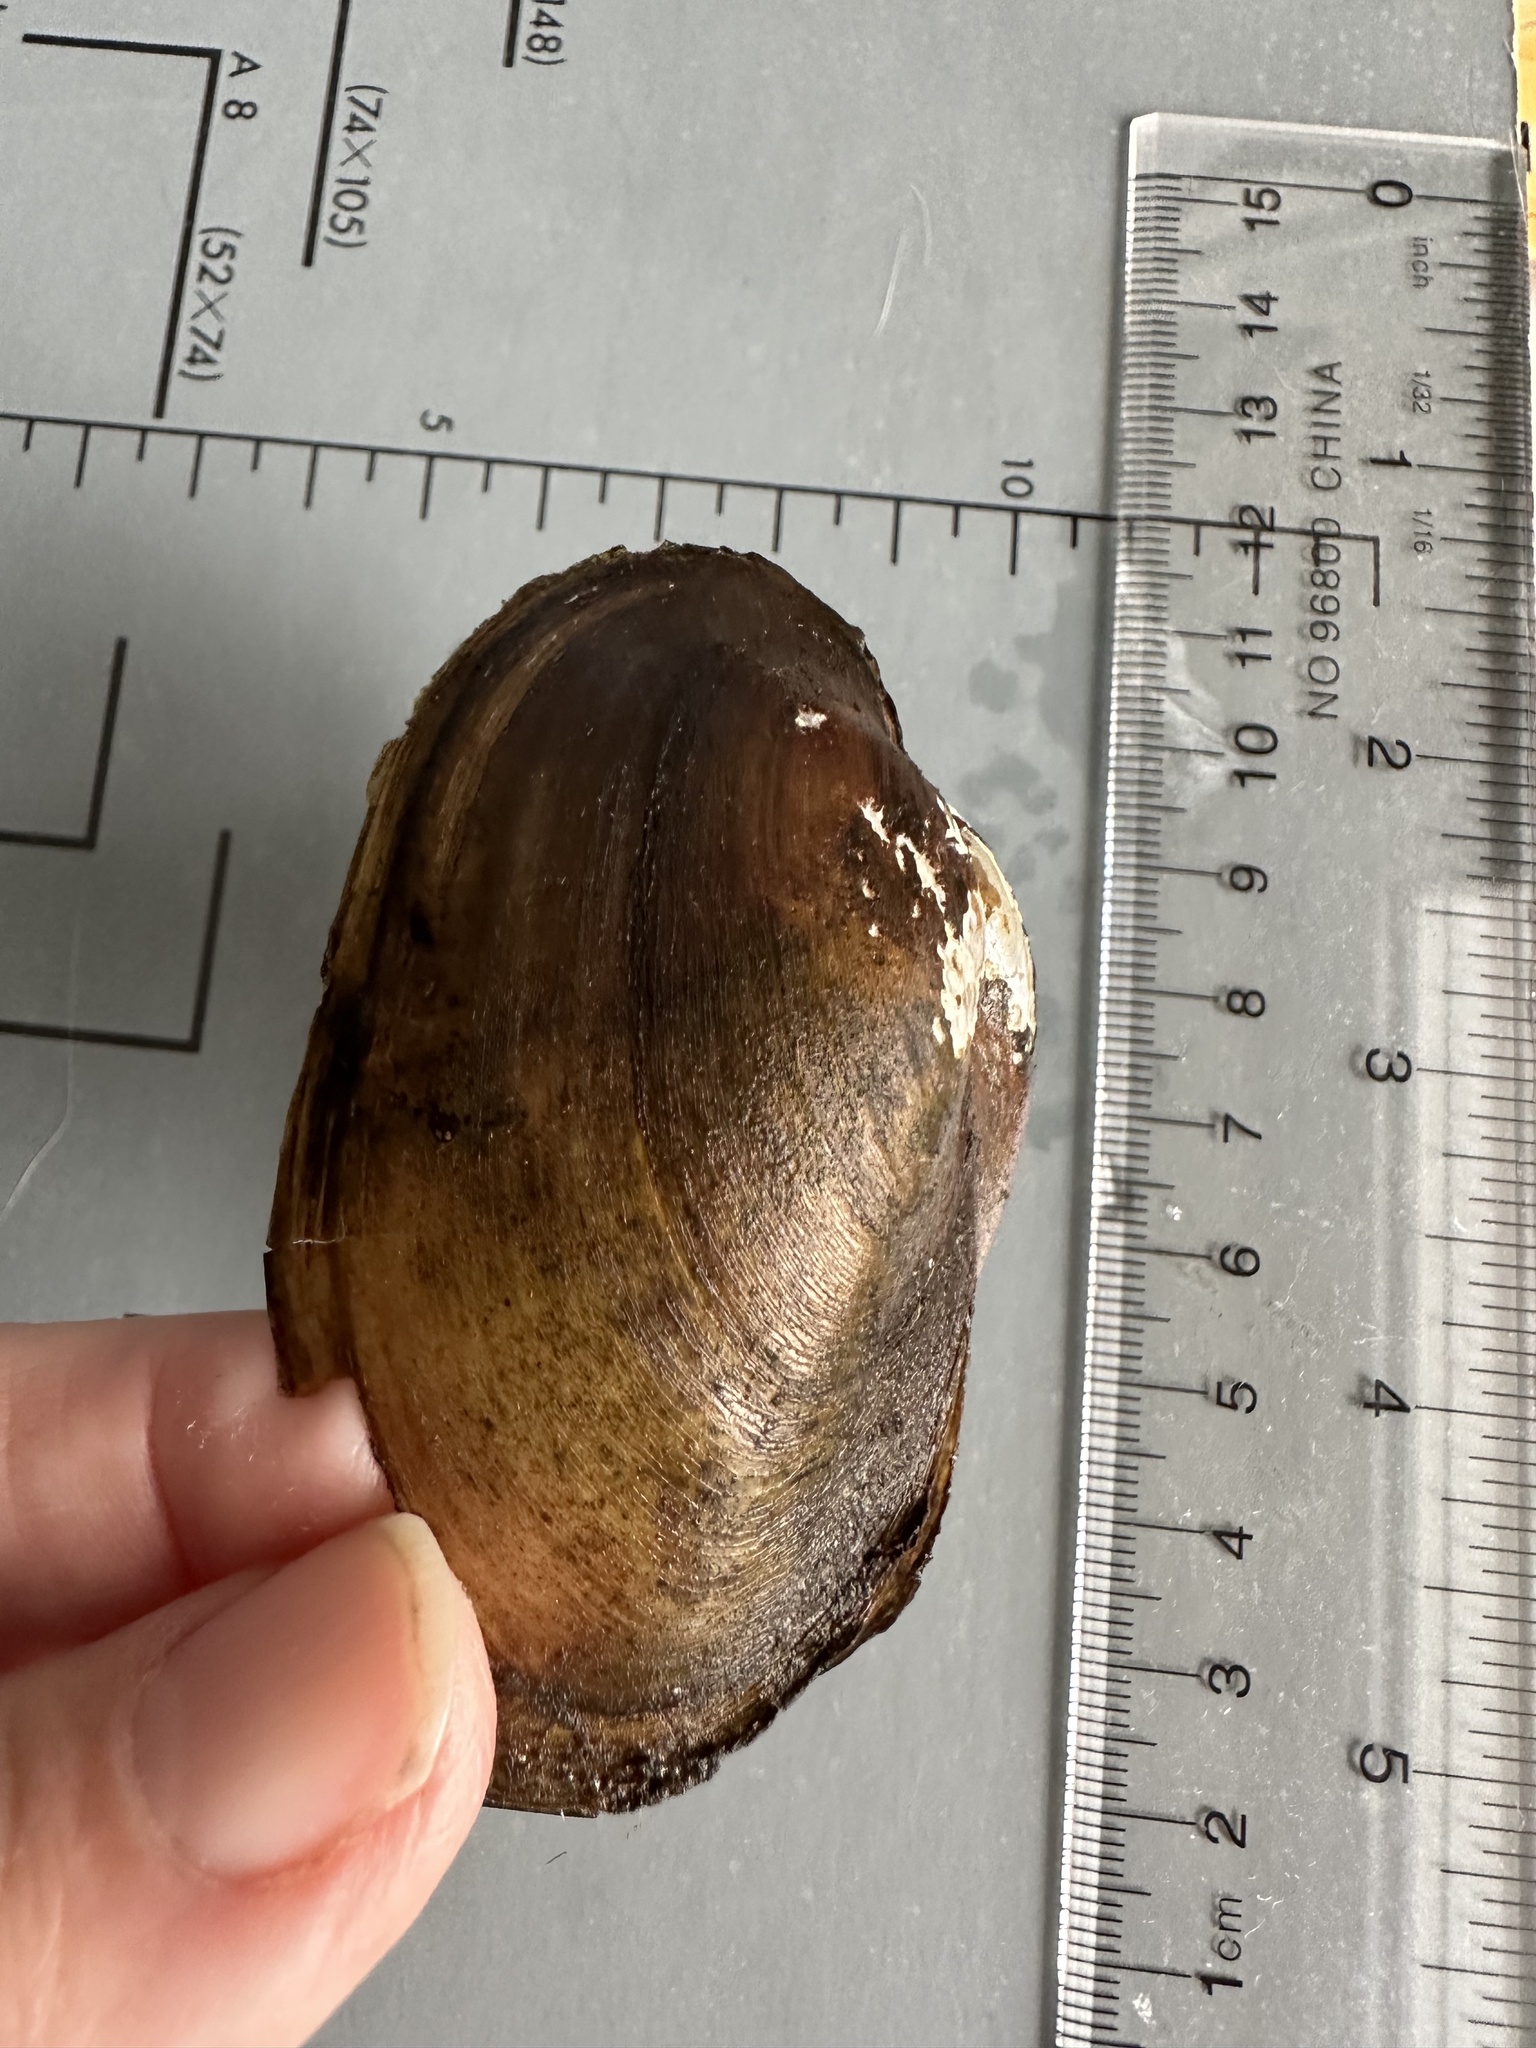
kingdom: Animalia
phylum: Mollusca
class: Bivalvia
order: Unionida
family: Unionidae
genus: Pyganodon
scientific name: Pyganodon grandis
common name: Giant floater
